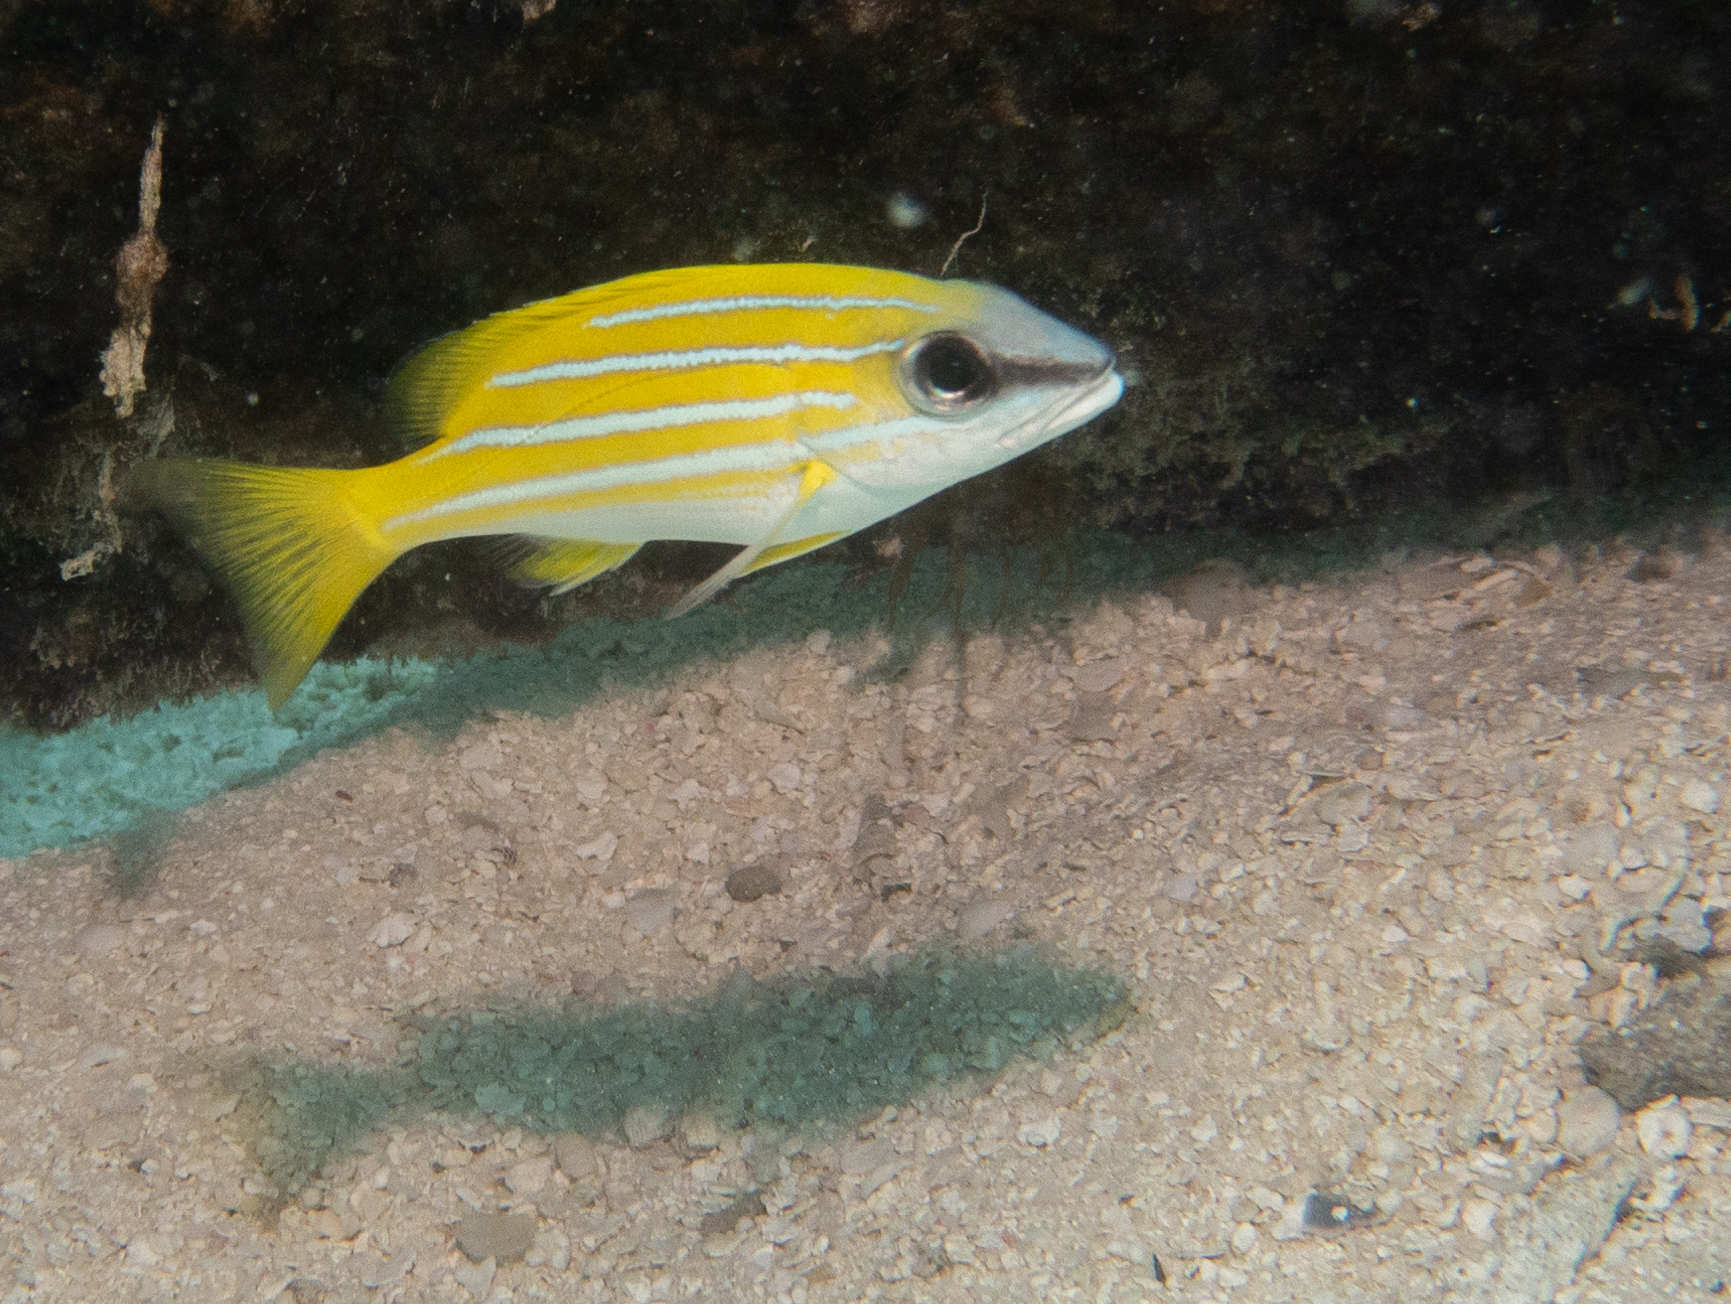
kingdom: Animalia
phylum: Chordata
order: Perciformes
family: Lutjanidae
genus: Lutjanus
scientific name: Lutjanus kasmira
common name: Common bluestripe snapper
